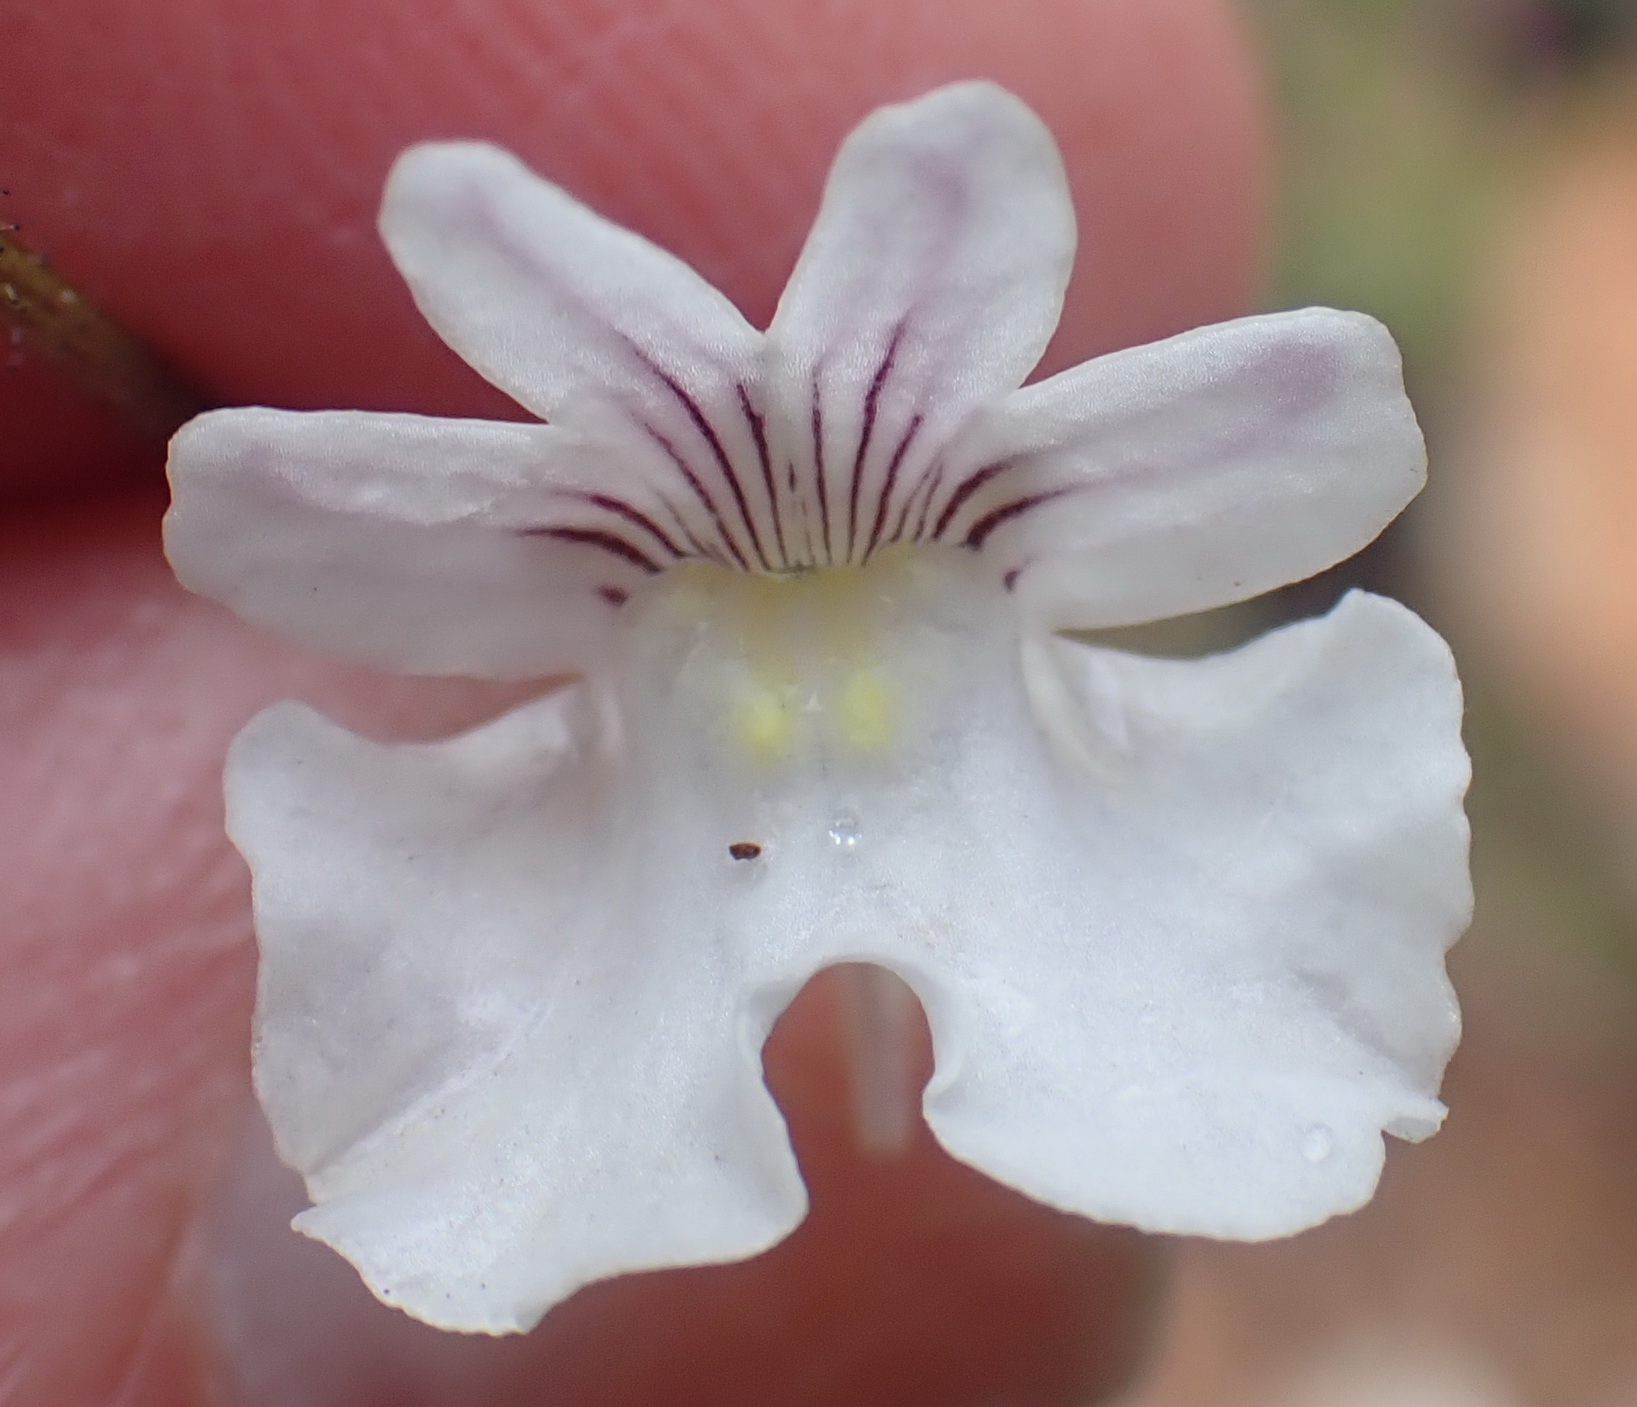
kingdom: Plantae
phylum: Tracheophyta
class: Magnoliopsida
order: Lamiales
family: Scrophulariaceae
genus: Nemesia
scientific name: Nemesia bicornis
